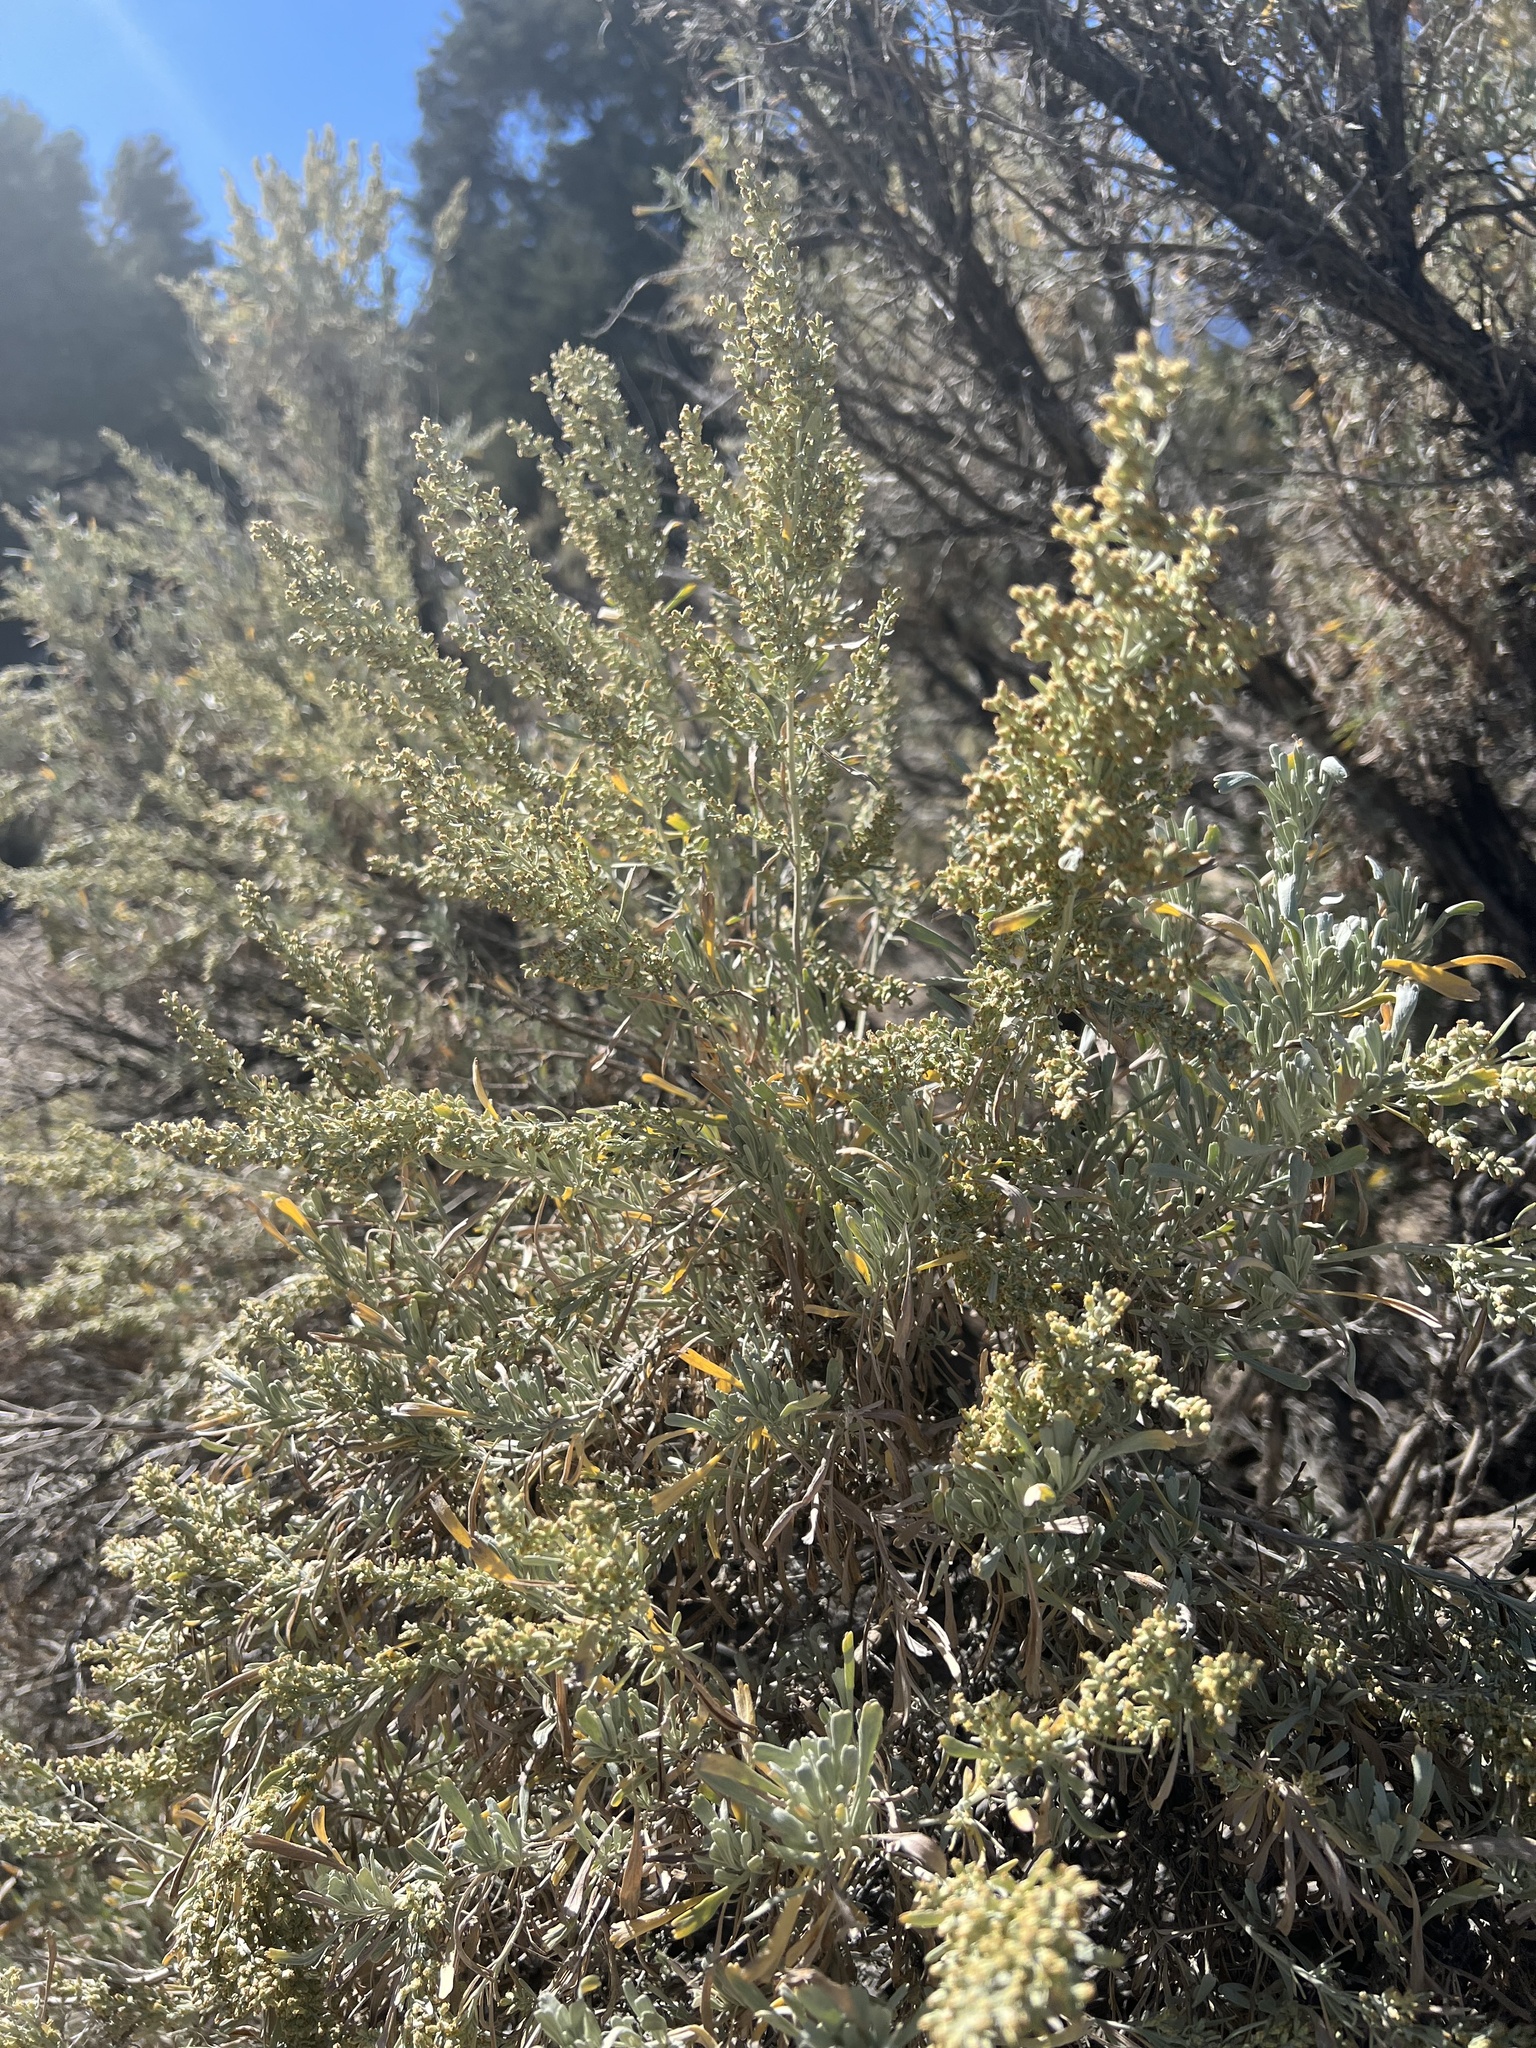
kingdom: Plantae
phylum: Tracheophyta
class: Magnoliopsida
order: Asterales
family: Asteraceae
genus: Artemisia
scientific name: Artemisia tridentata
